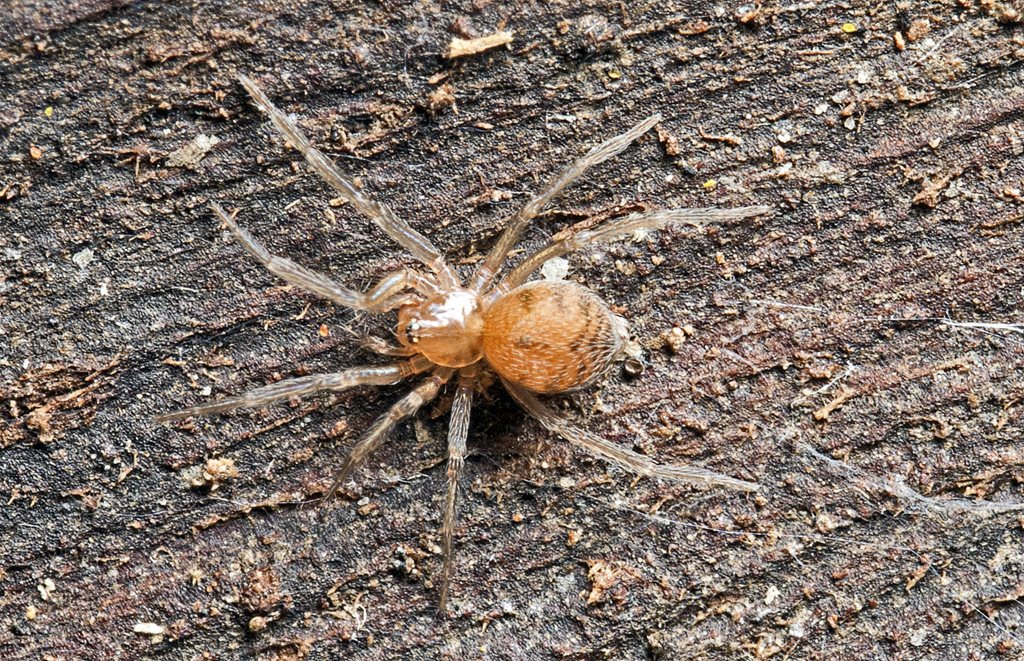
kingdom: Animalia
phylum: Arthropoda
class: Arachnida
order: Araneae
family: Hahniidae
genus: Scotospilus
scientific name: Scotospilus ampullarius
